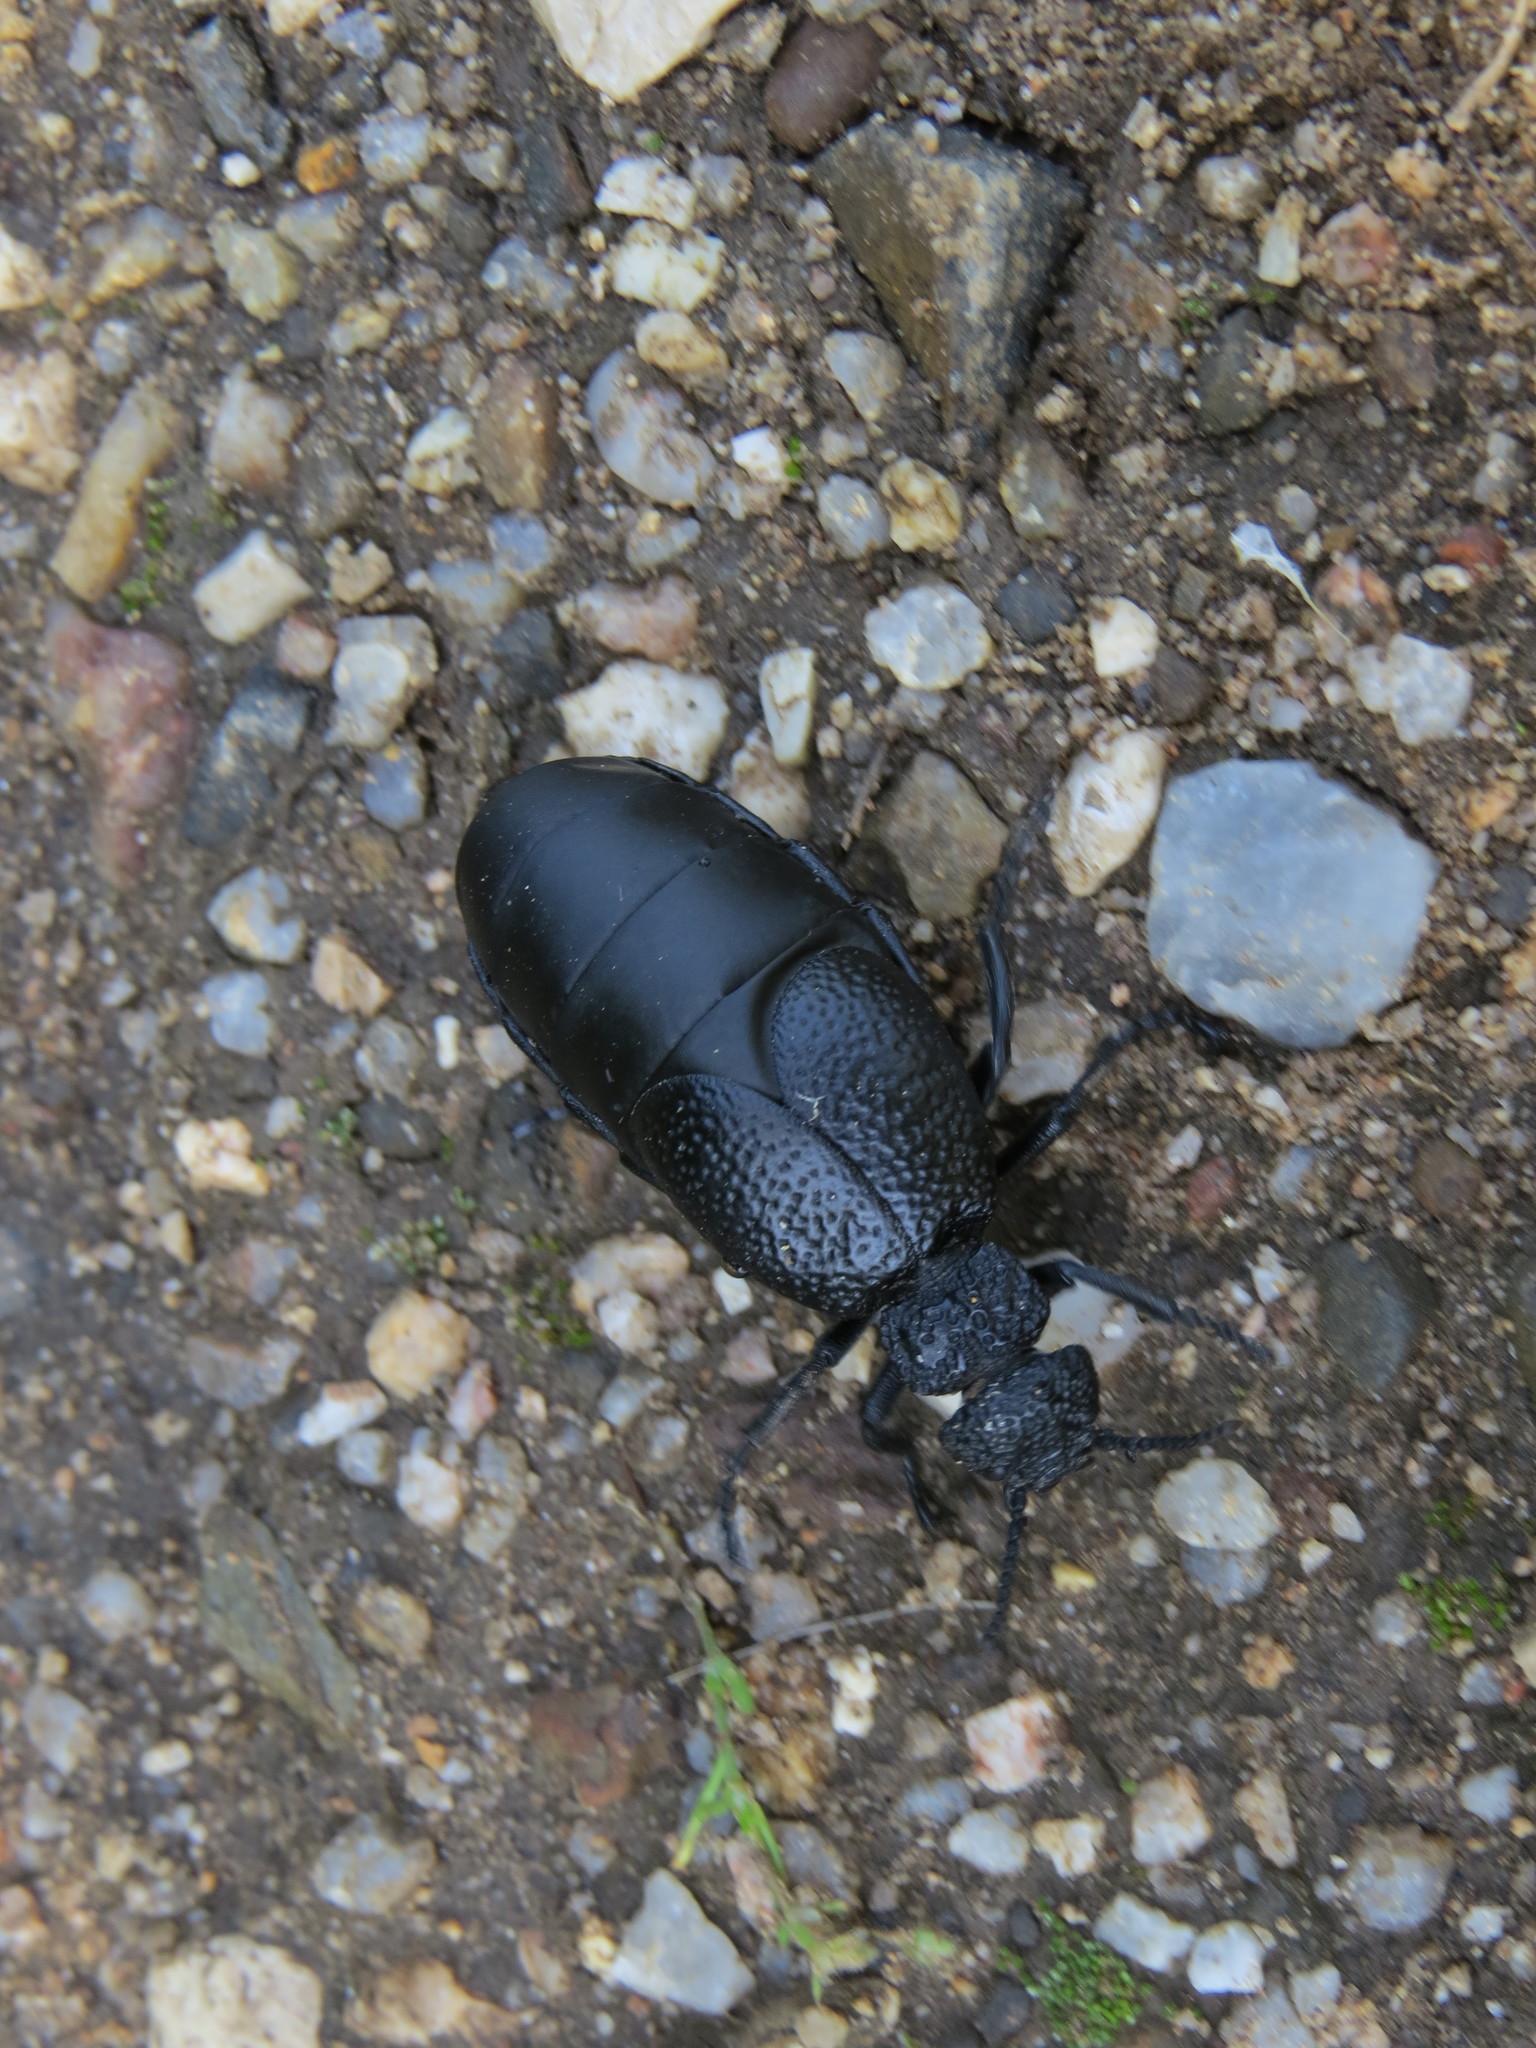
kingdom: Animalia
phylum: Arthropoda
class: Insecta
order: Coleoptera
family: Meloidae
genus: Meloe
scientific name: Meloe tuccius
